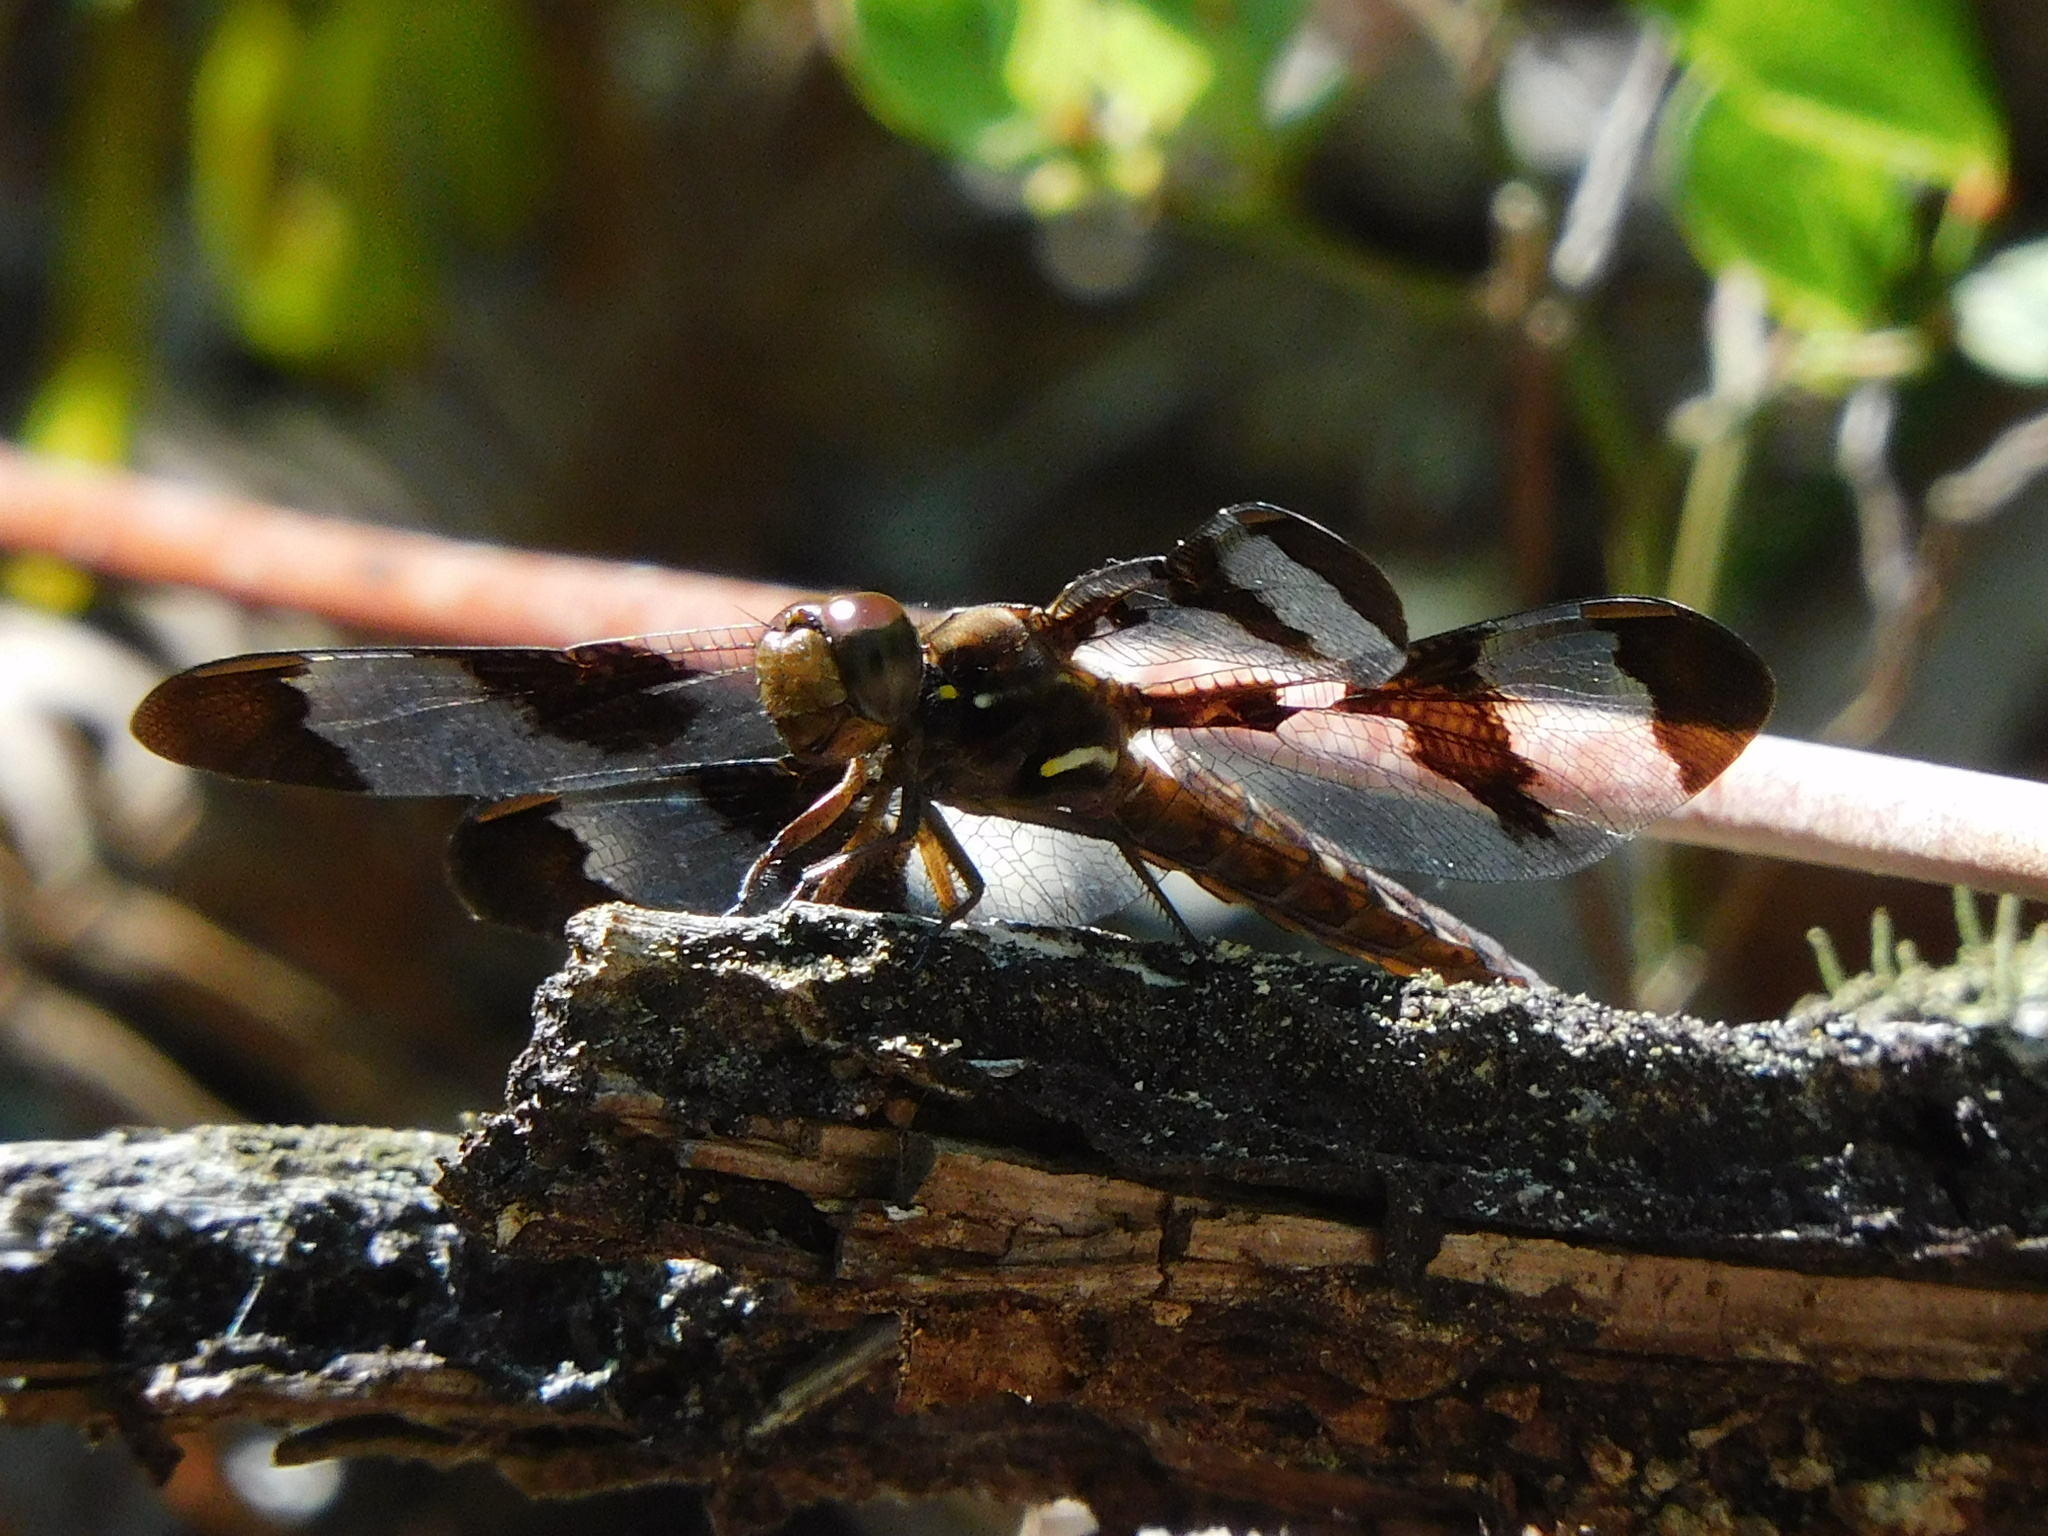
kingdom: Animalia
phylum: Arthropoda
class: Insecta
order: Odonata
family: Libellulidae
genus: Plathemis
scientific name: Plathemis lydia
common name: Common whitetail
